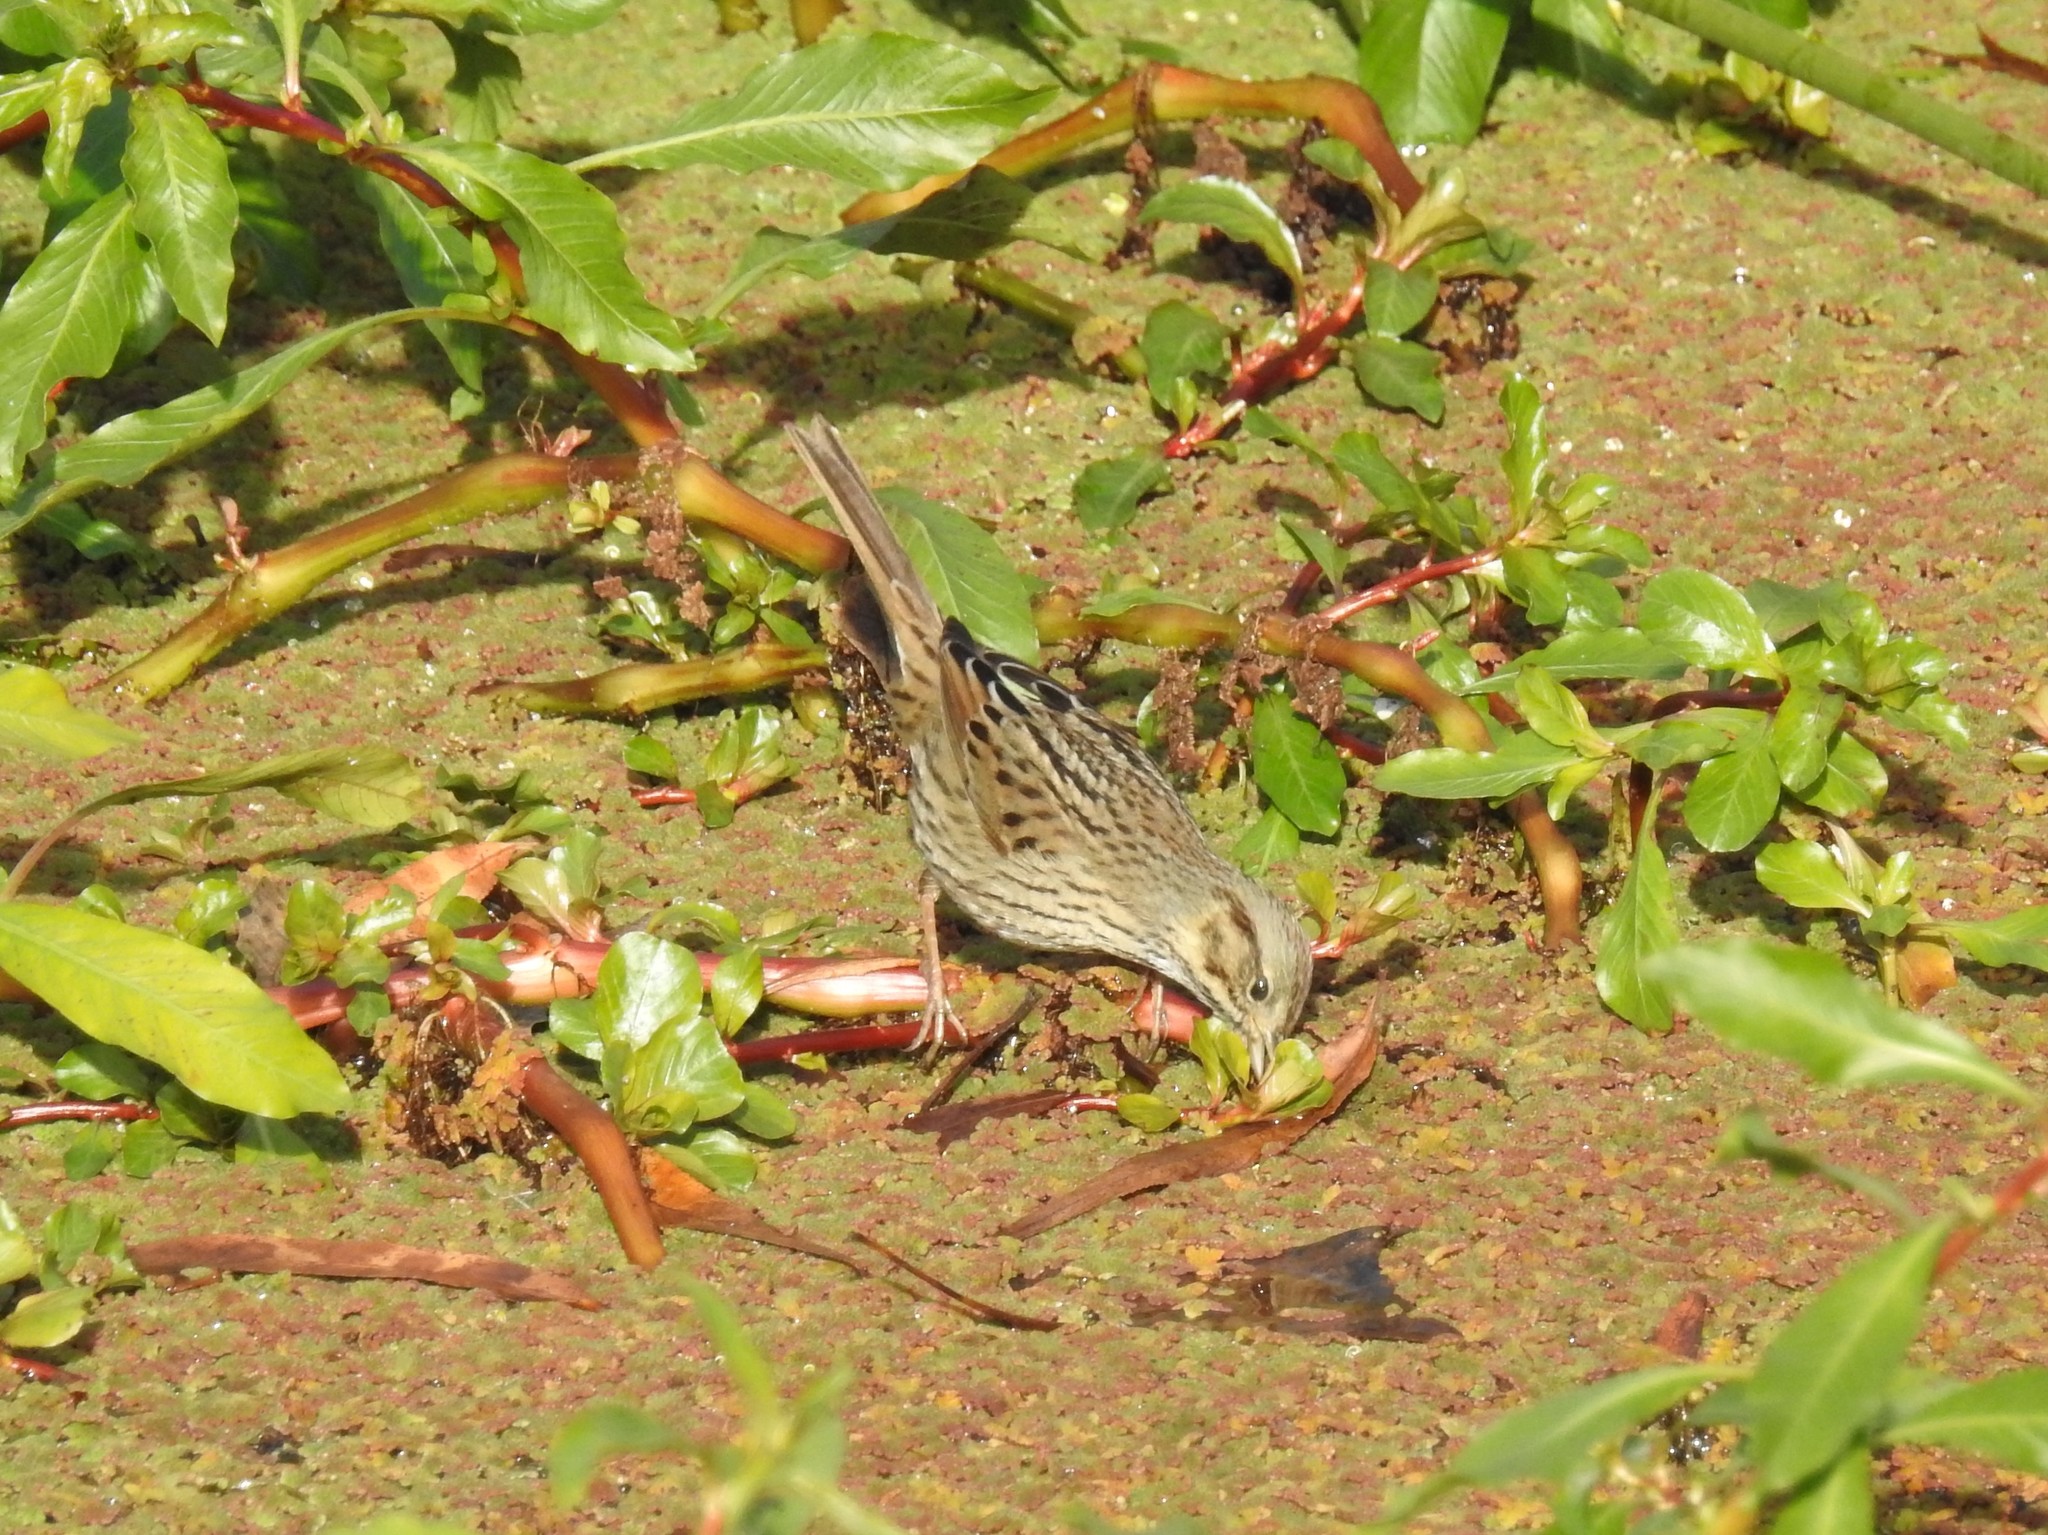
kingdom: Animalia
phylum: Chordata
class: Aves
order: Passeriformes
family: Passerellidae
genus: Melospiza
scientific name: Melospiza lincolnii
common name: Lincoln's sparrow
